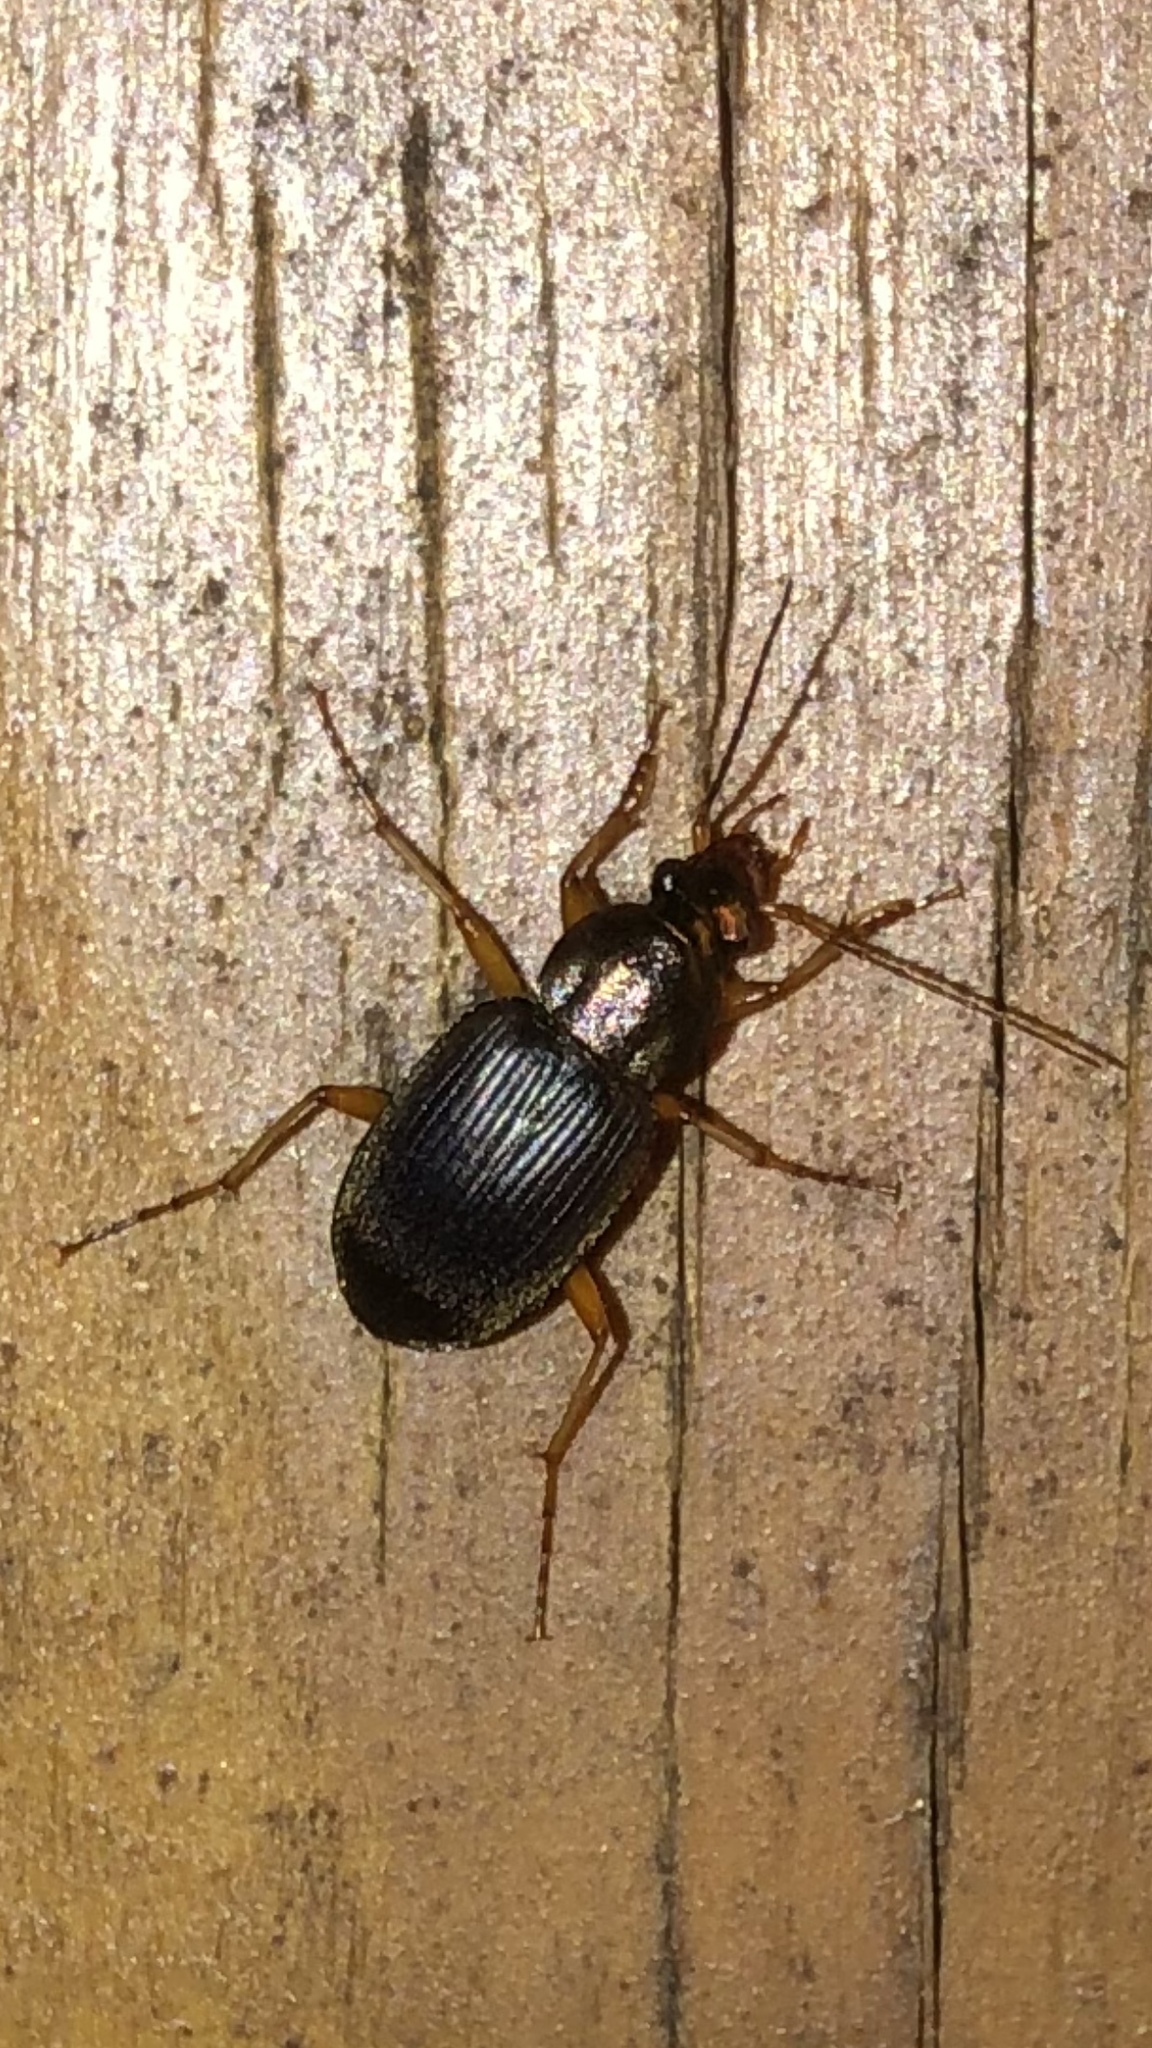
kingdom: Animalia
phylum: Arthropoda
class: Insecta
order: Coleoptera
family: Carabidae
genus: Chlaenius
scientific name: Chlaenius tricolor
